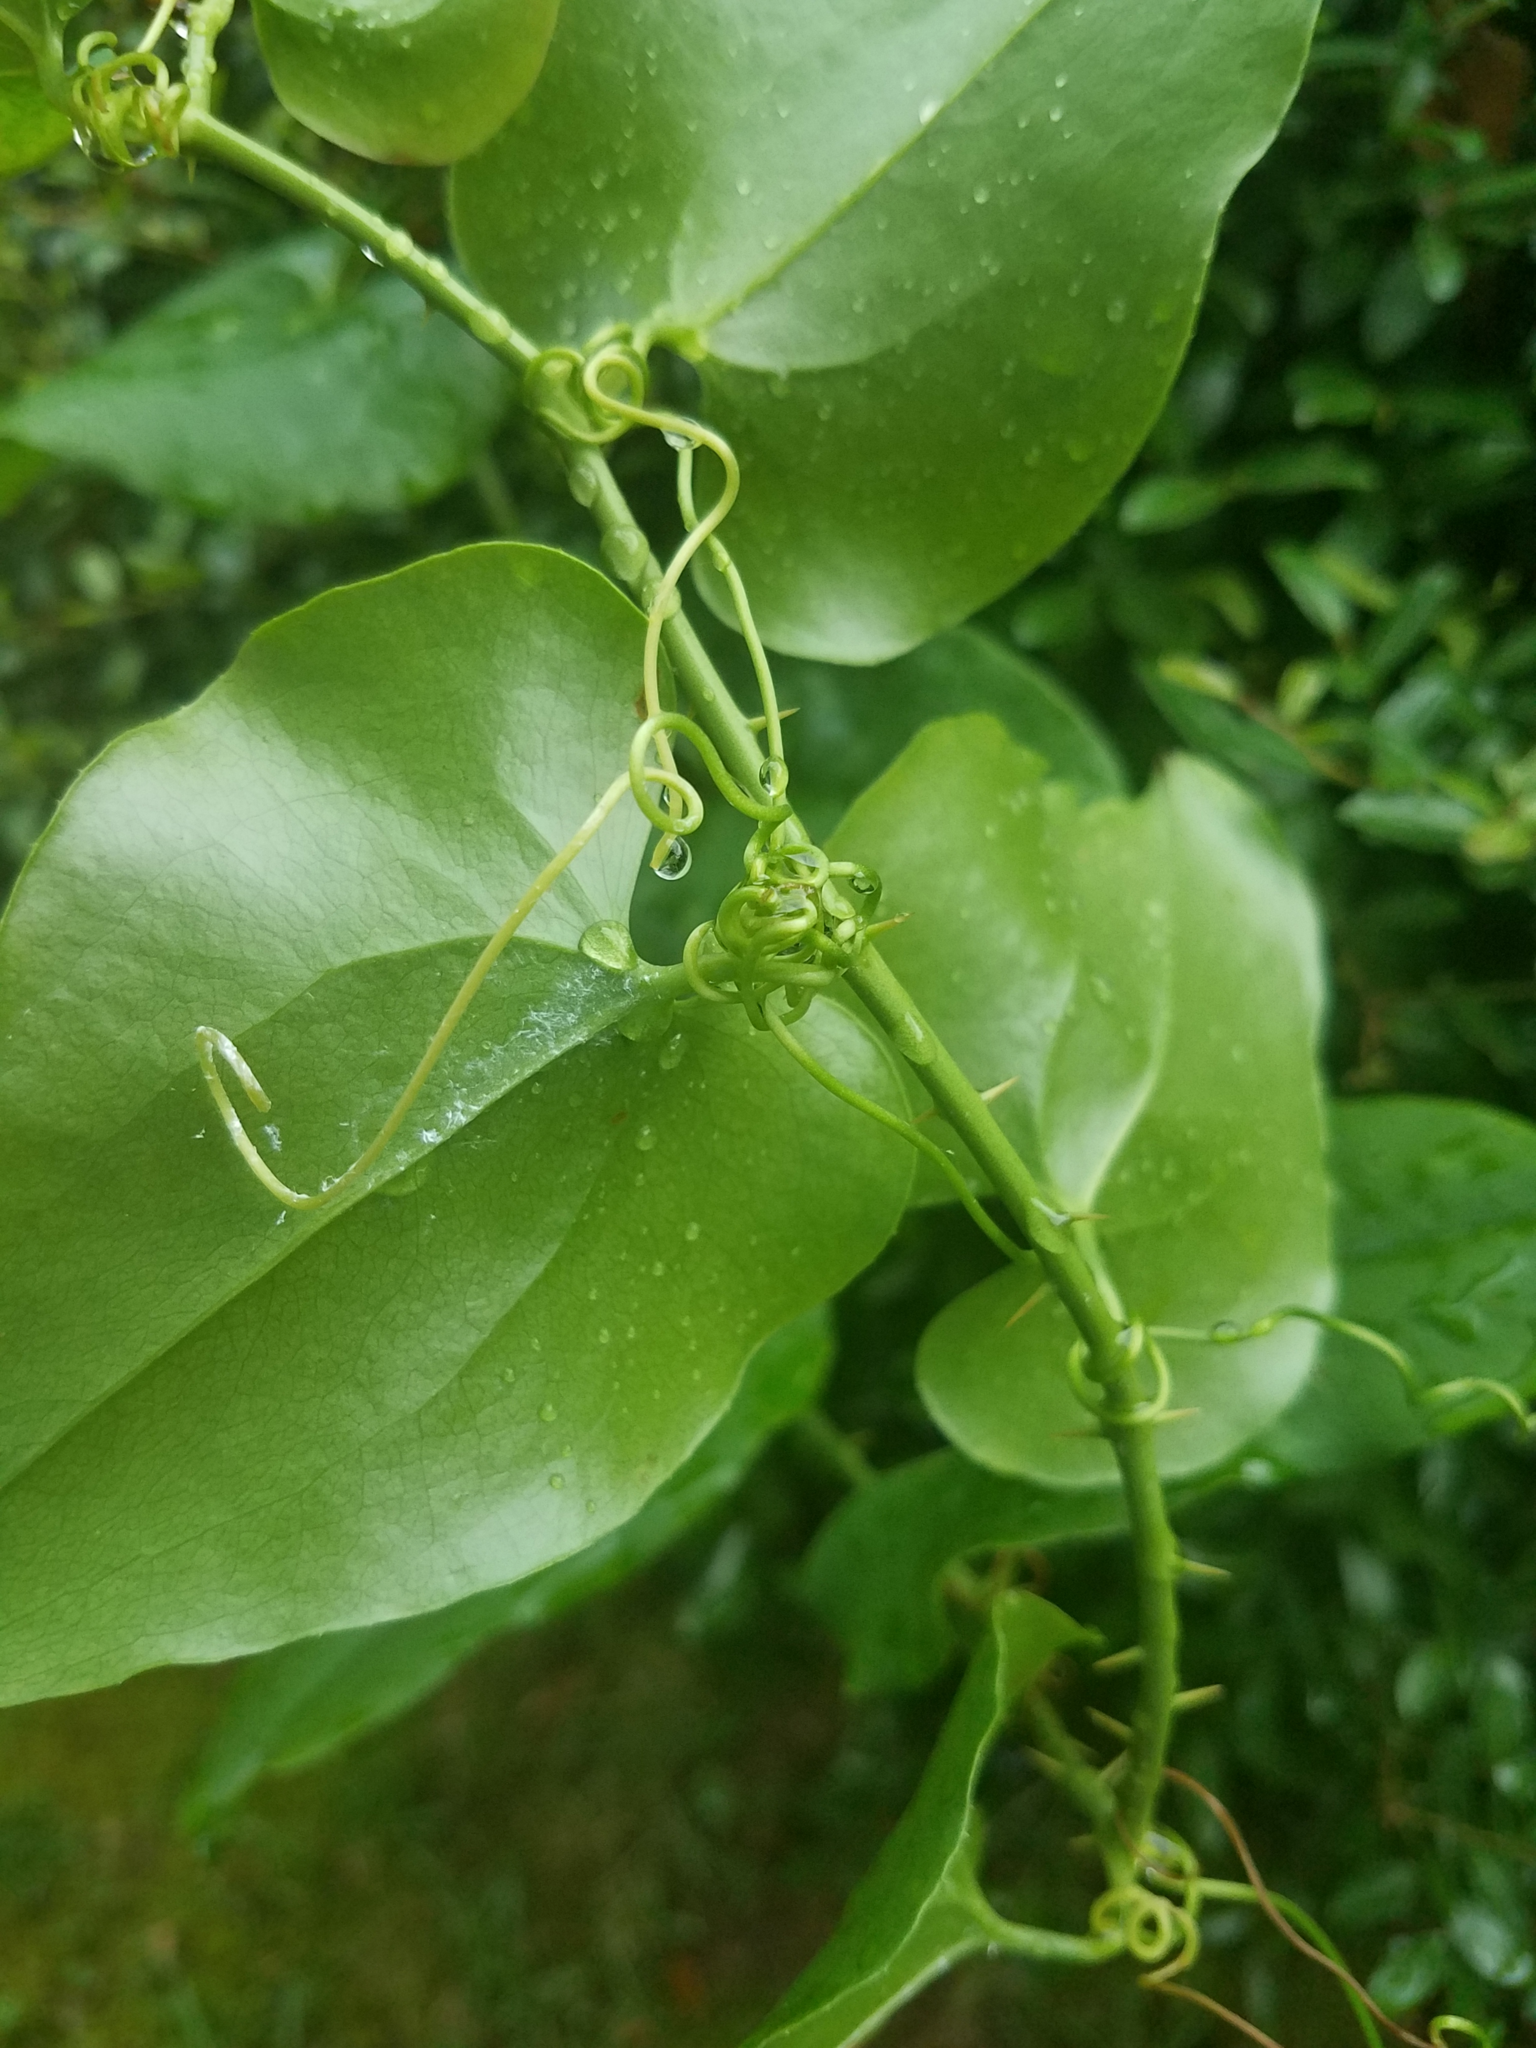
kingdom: Plantae
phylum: Tracheophyta
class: Liliopsida
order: Liliales
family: Smilacaceae
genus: Smilax
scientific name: Smilax rotundifolia
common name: Bullbriar
